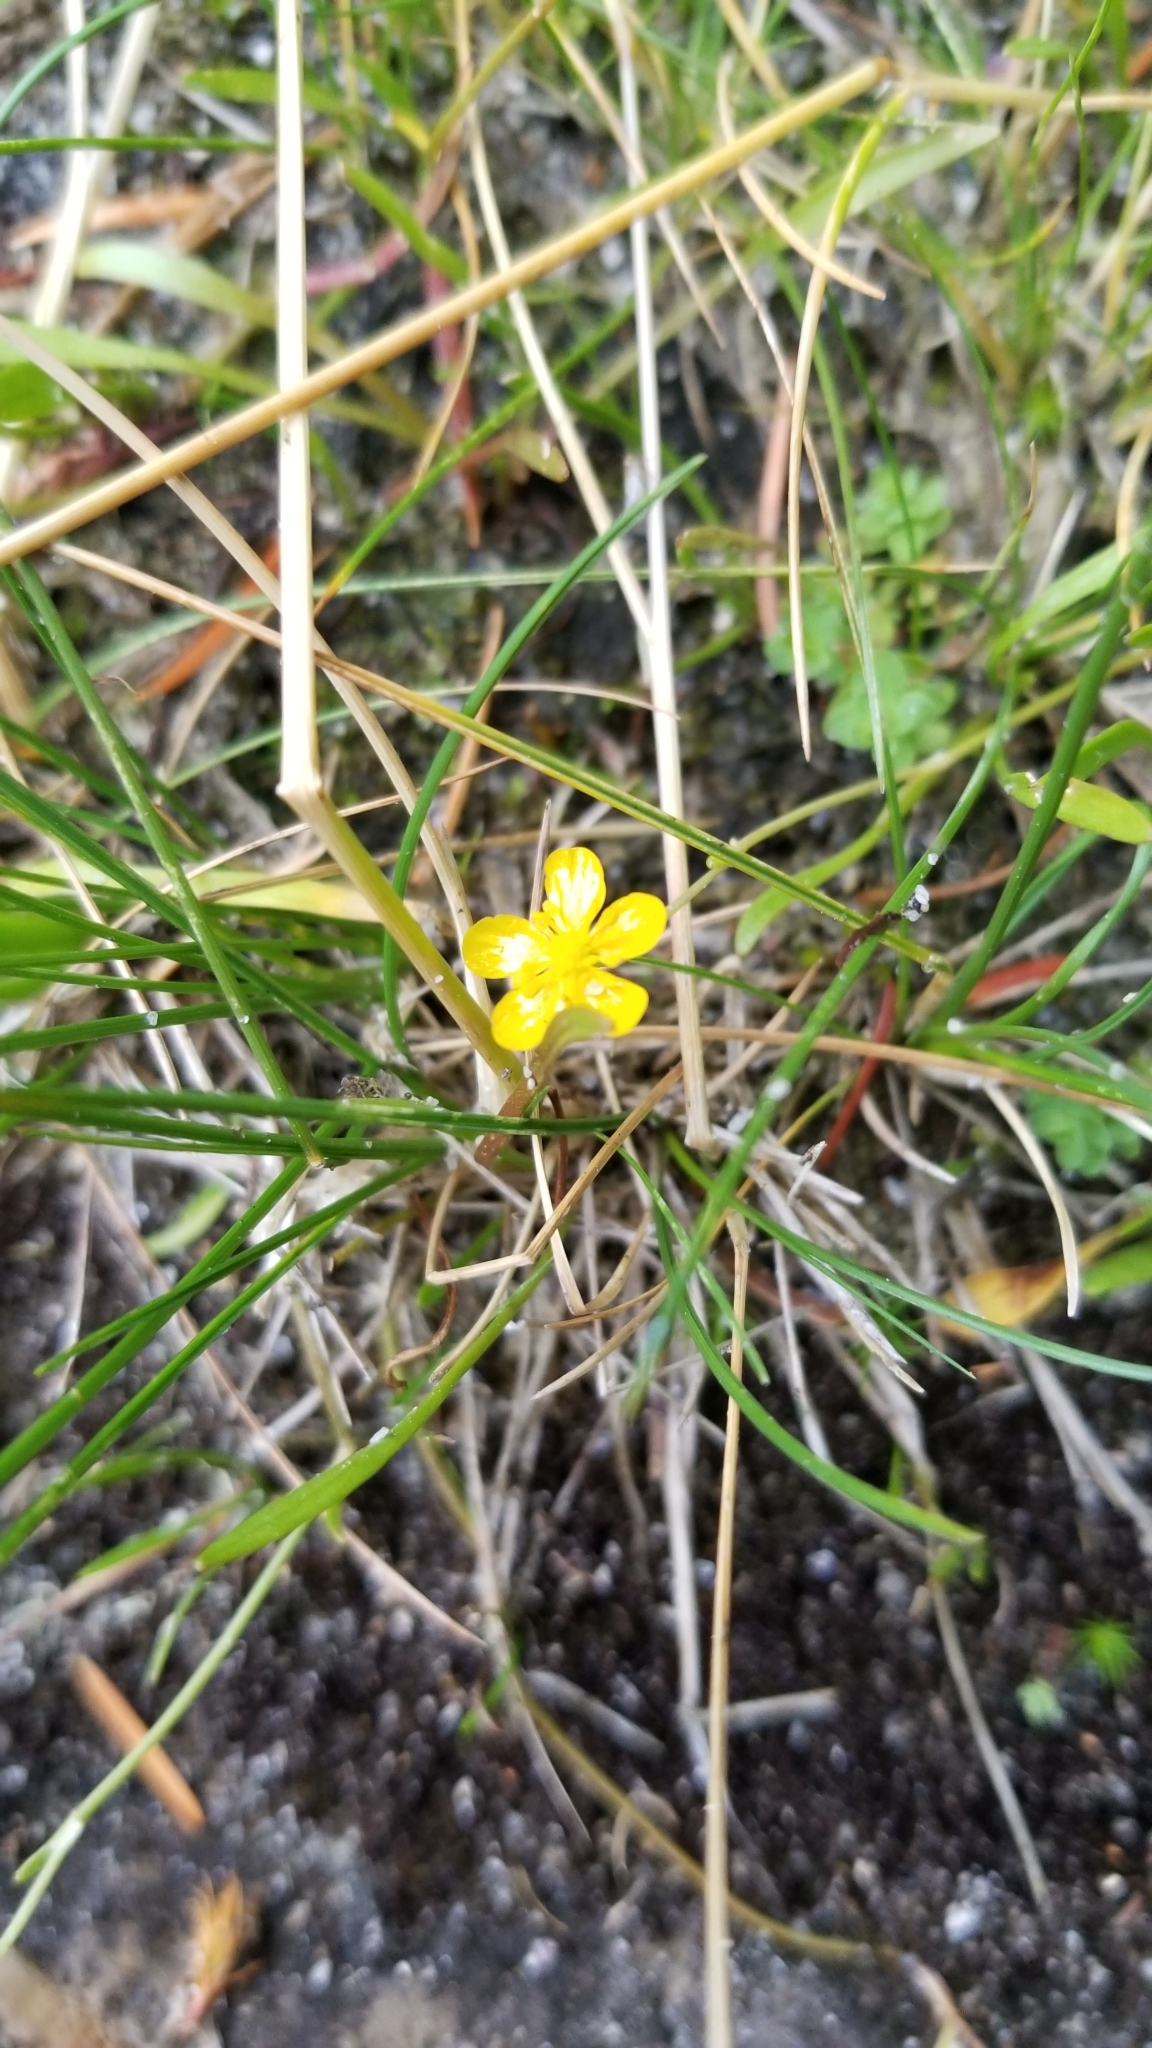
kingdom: Plantae
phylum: Tracheophyta
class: Magnoliopsida
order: Ranunculales
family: Ranunculaceae
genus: Ranunculus
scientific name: Ranunculus flammula
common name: Lesser spearwort
